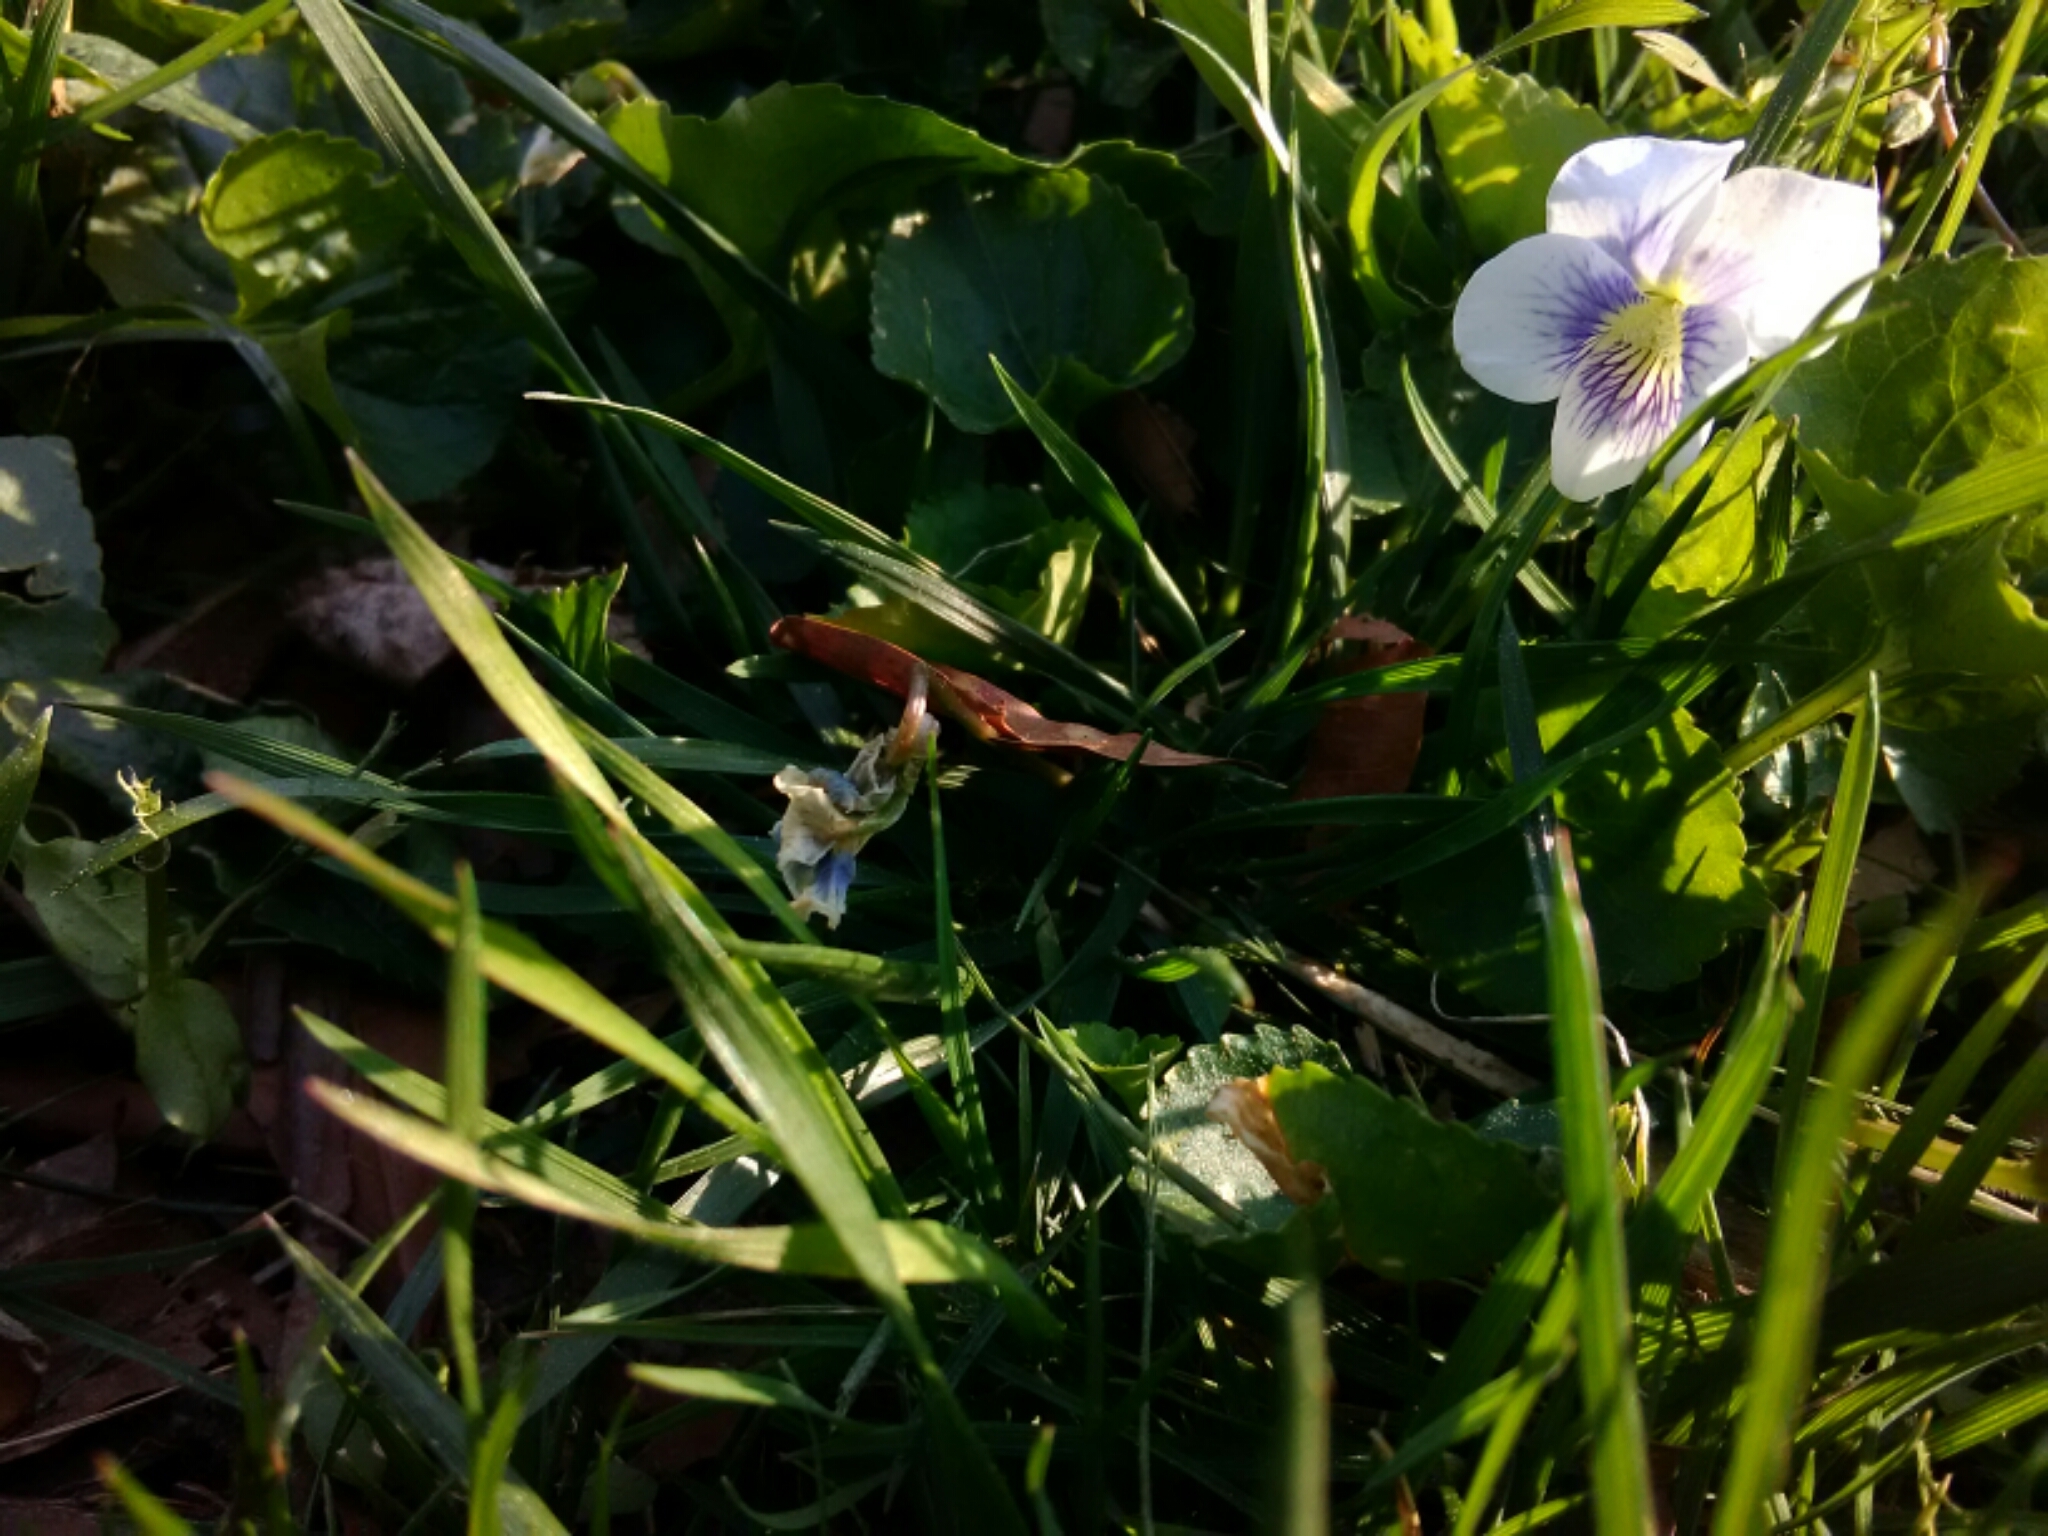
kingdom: Plantae
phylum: Tracheophyta
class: Magnoliopsida
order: Malpighiales
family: Violaceae
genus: Viola
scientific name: Viola sororia
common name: Dooryard violet
